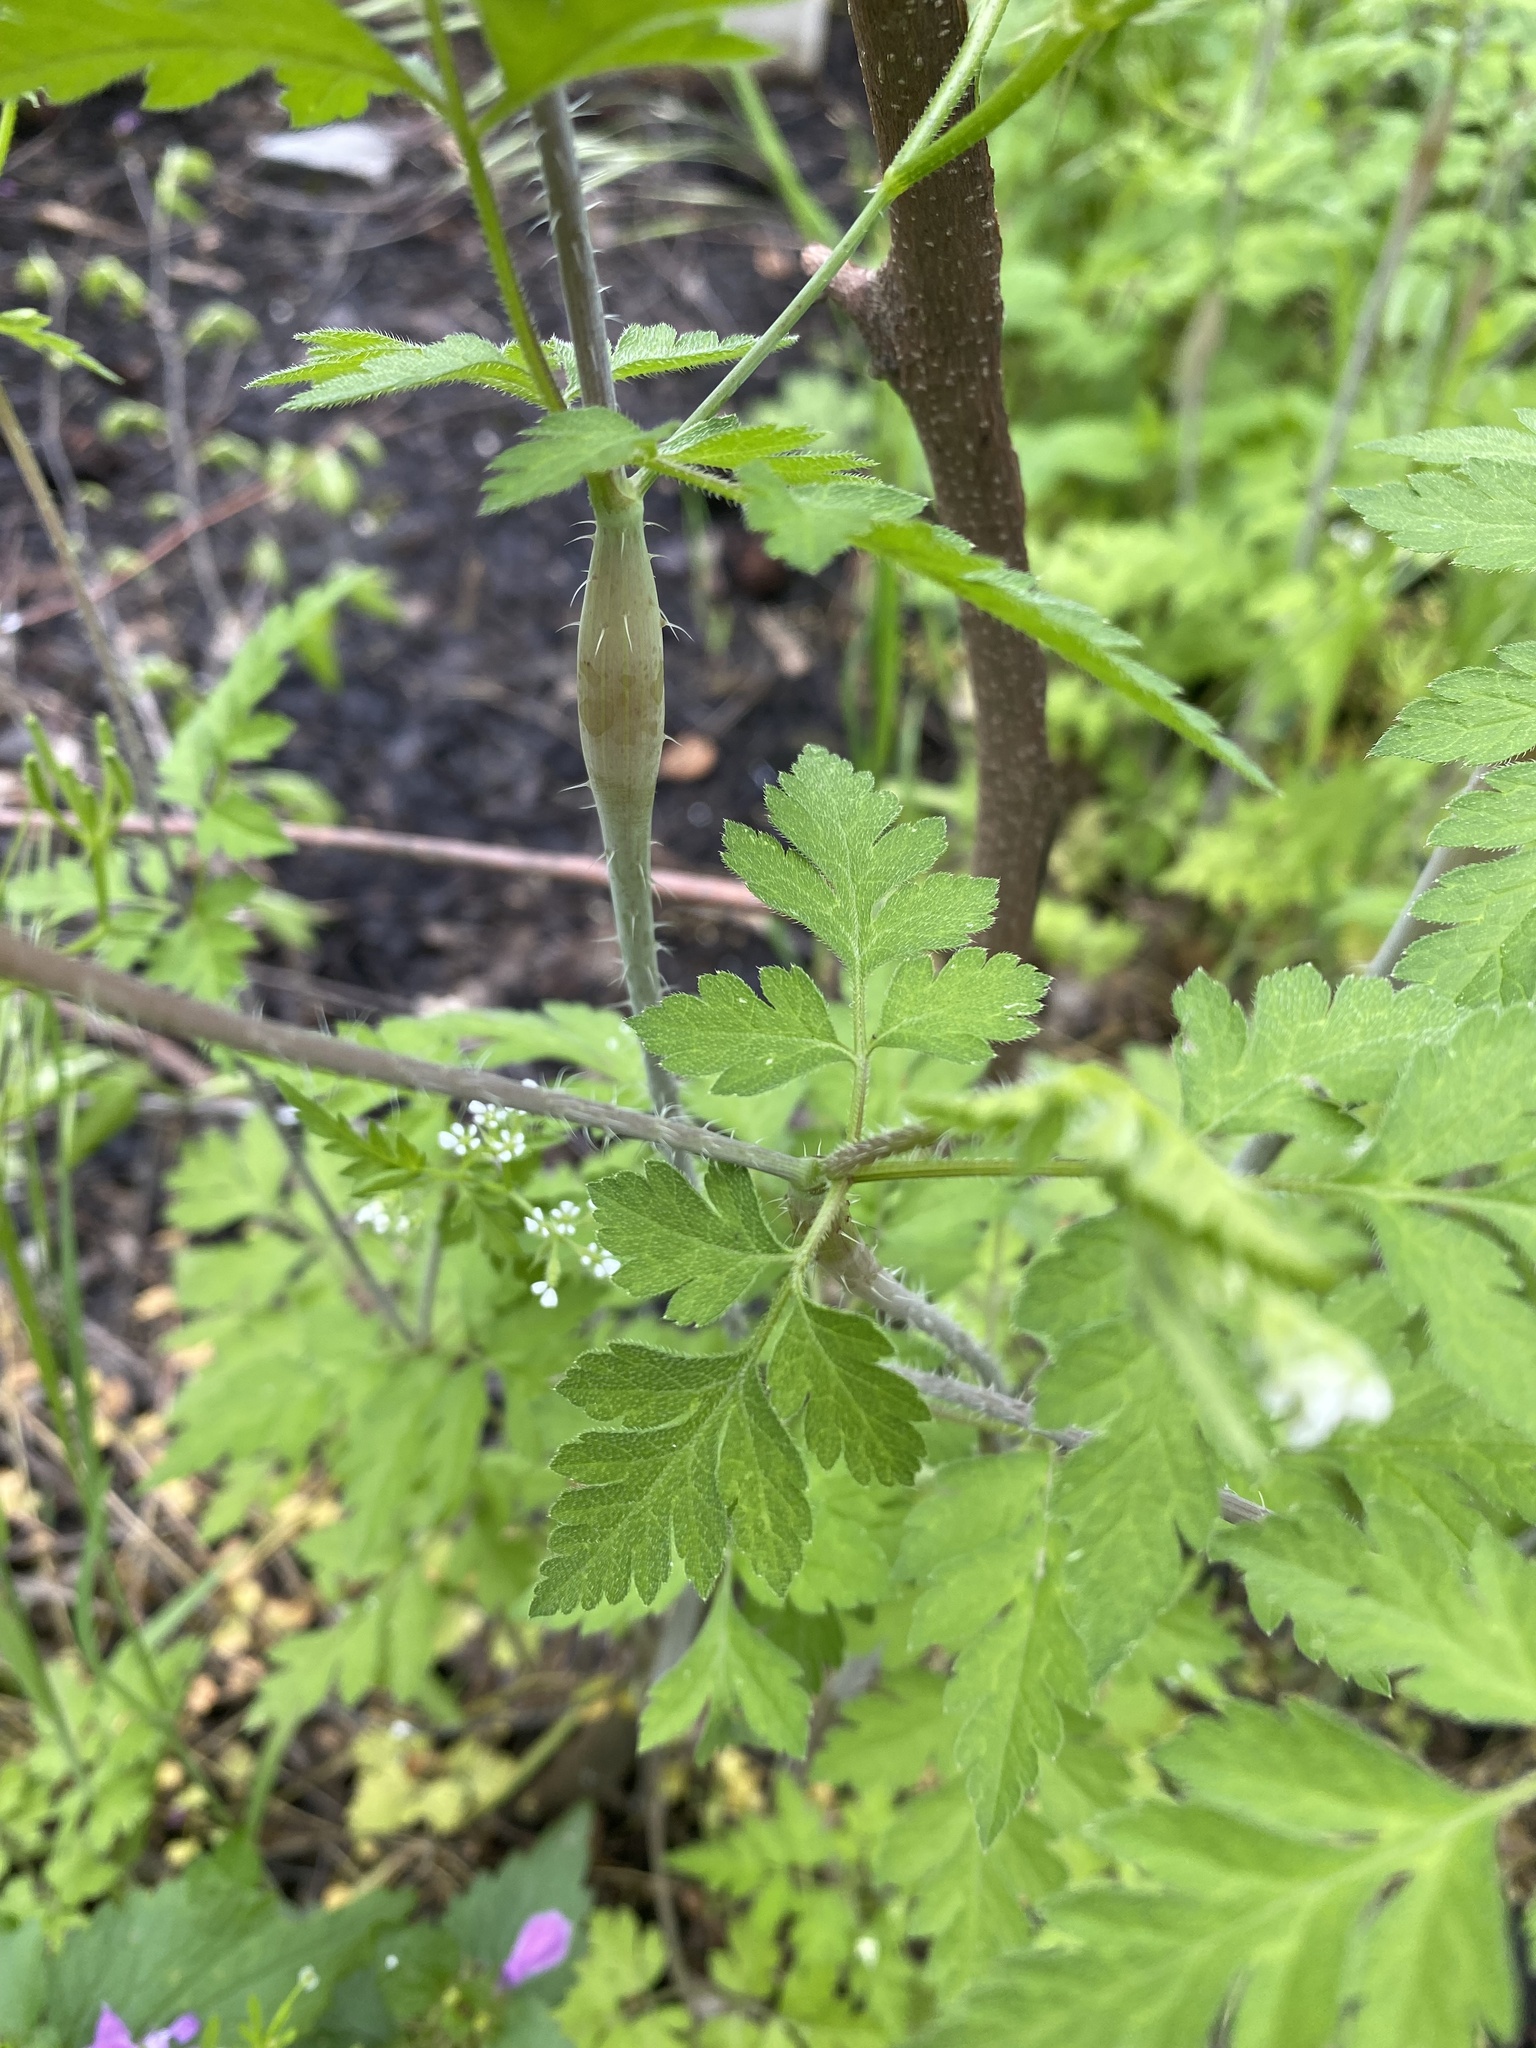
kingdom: Plantae
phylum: Tracheophyta
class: Magnoliopsida
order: Apiales
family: Apiaceae
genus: Chaerophyllum
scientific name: Chaerophyllum nodosum
